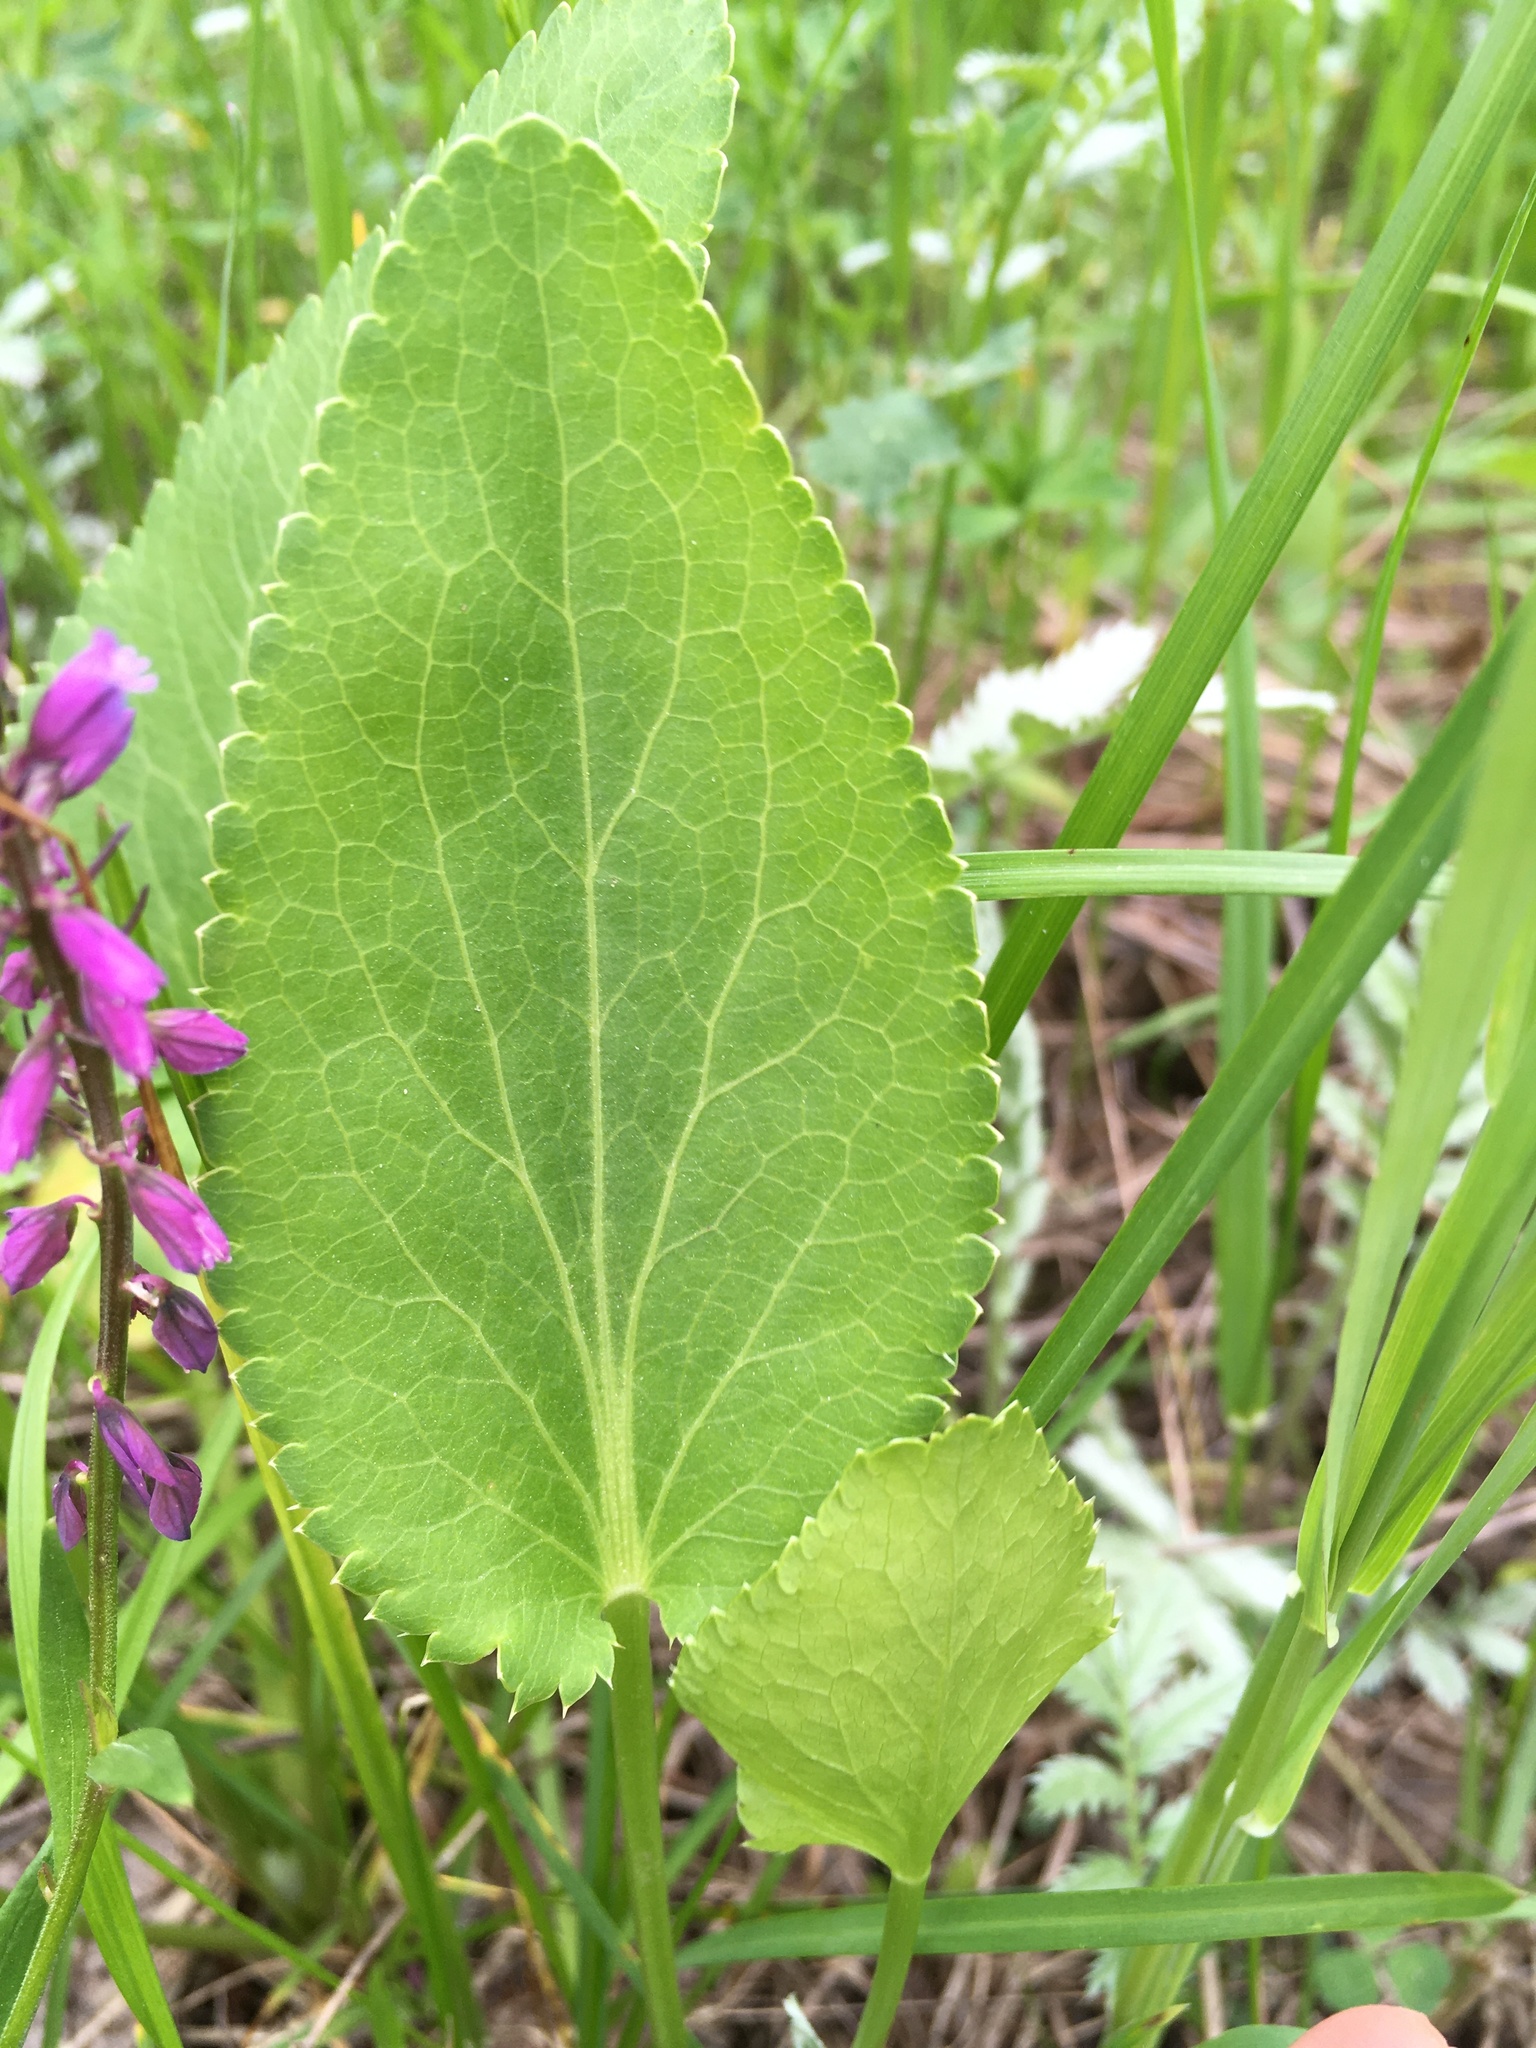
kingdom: Plantae
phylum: Tracheophyta
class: Magnoliopsida
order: Fabales
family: Polygalaceae
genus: Polygala
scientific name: Polygala comosa
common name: Tufted milkwort
